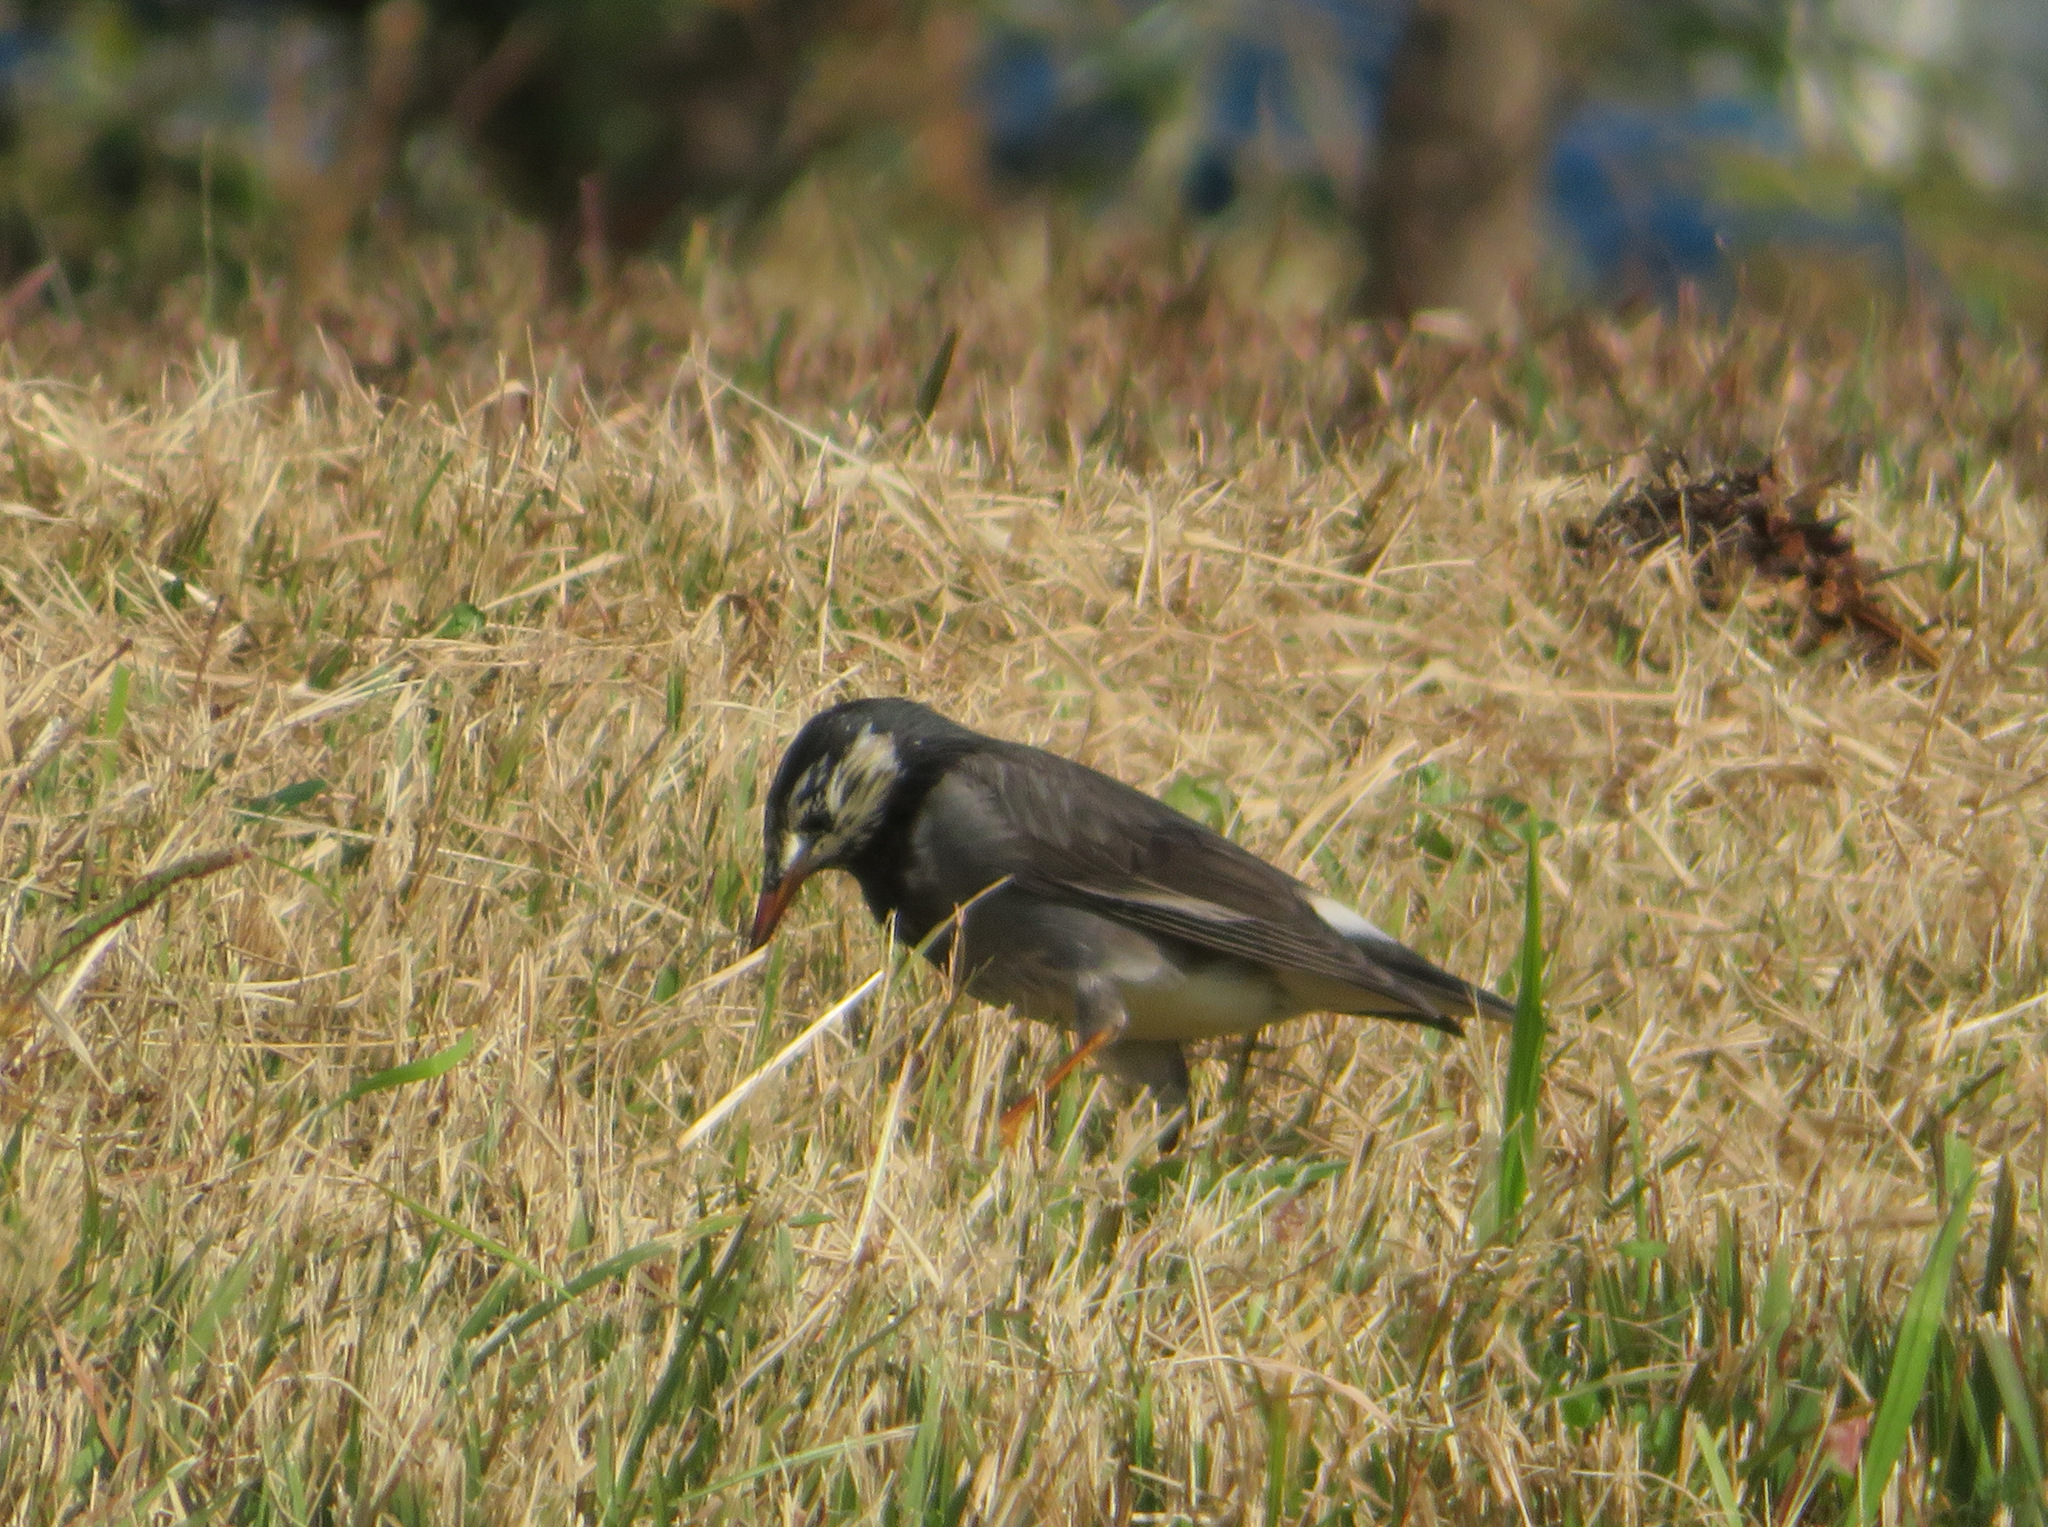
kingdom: Animalia
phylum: Chordata
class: Aves
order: Passeriformes
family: Sturnidae
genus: Spodiopsar
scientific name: Spodiopsar cineraceus
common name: White-cheeked starling
